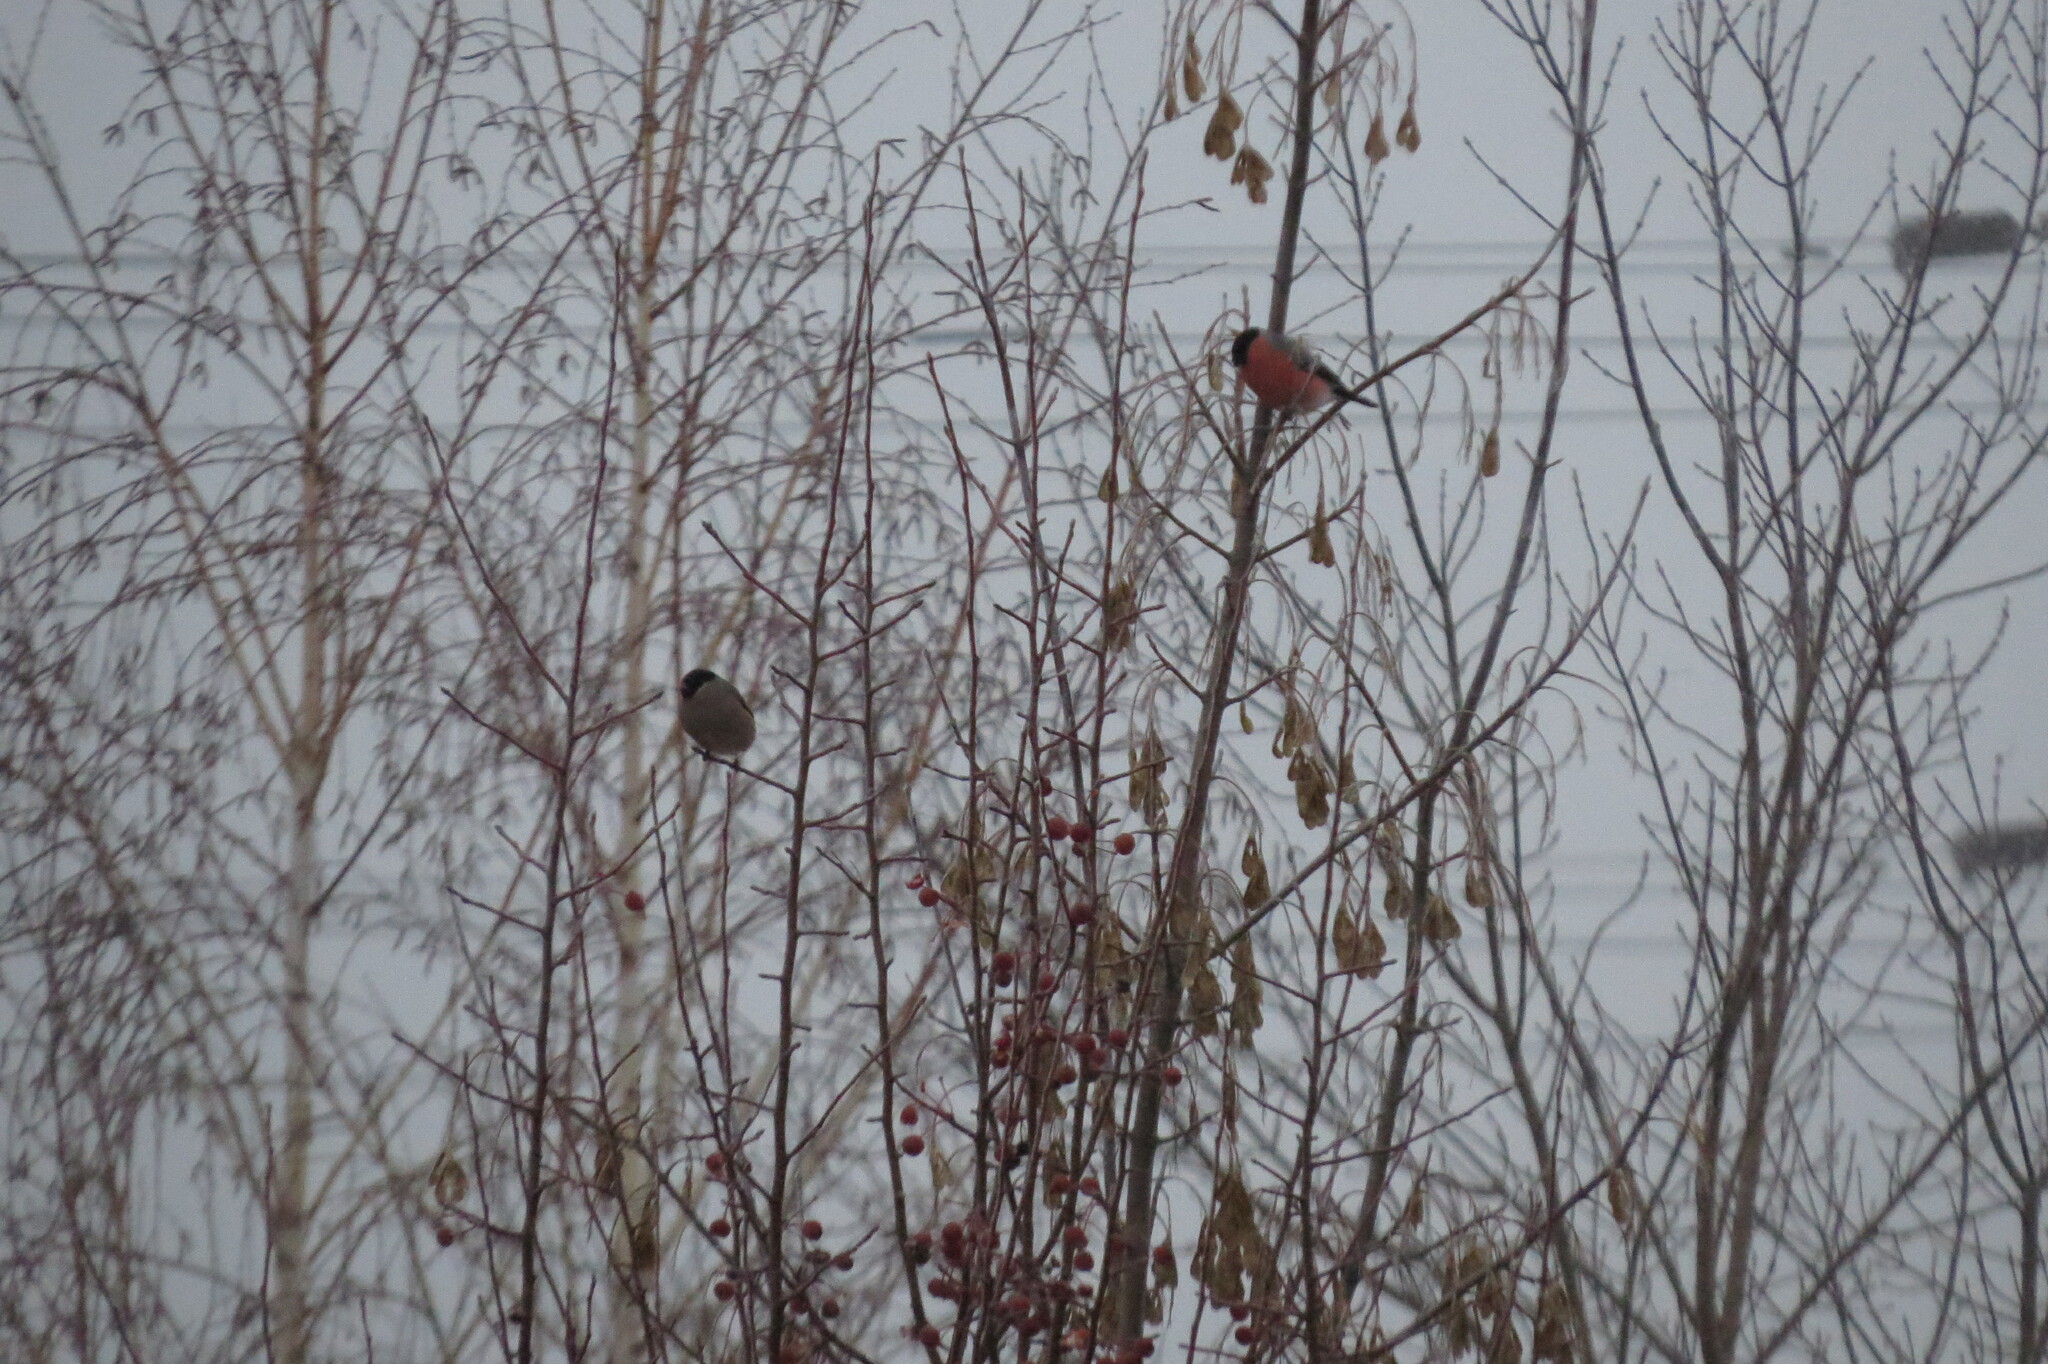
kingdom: Animalia
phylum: Chordata
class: Aves
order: Passeriformes
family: Fringillidae
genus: Pyrrhula
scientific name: Pyrrhula pyrrhula
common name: Eurasian bullfinch
